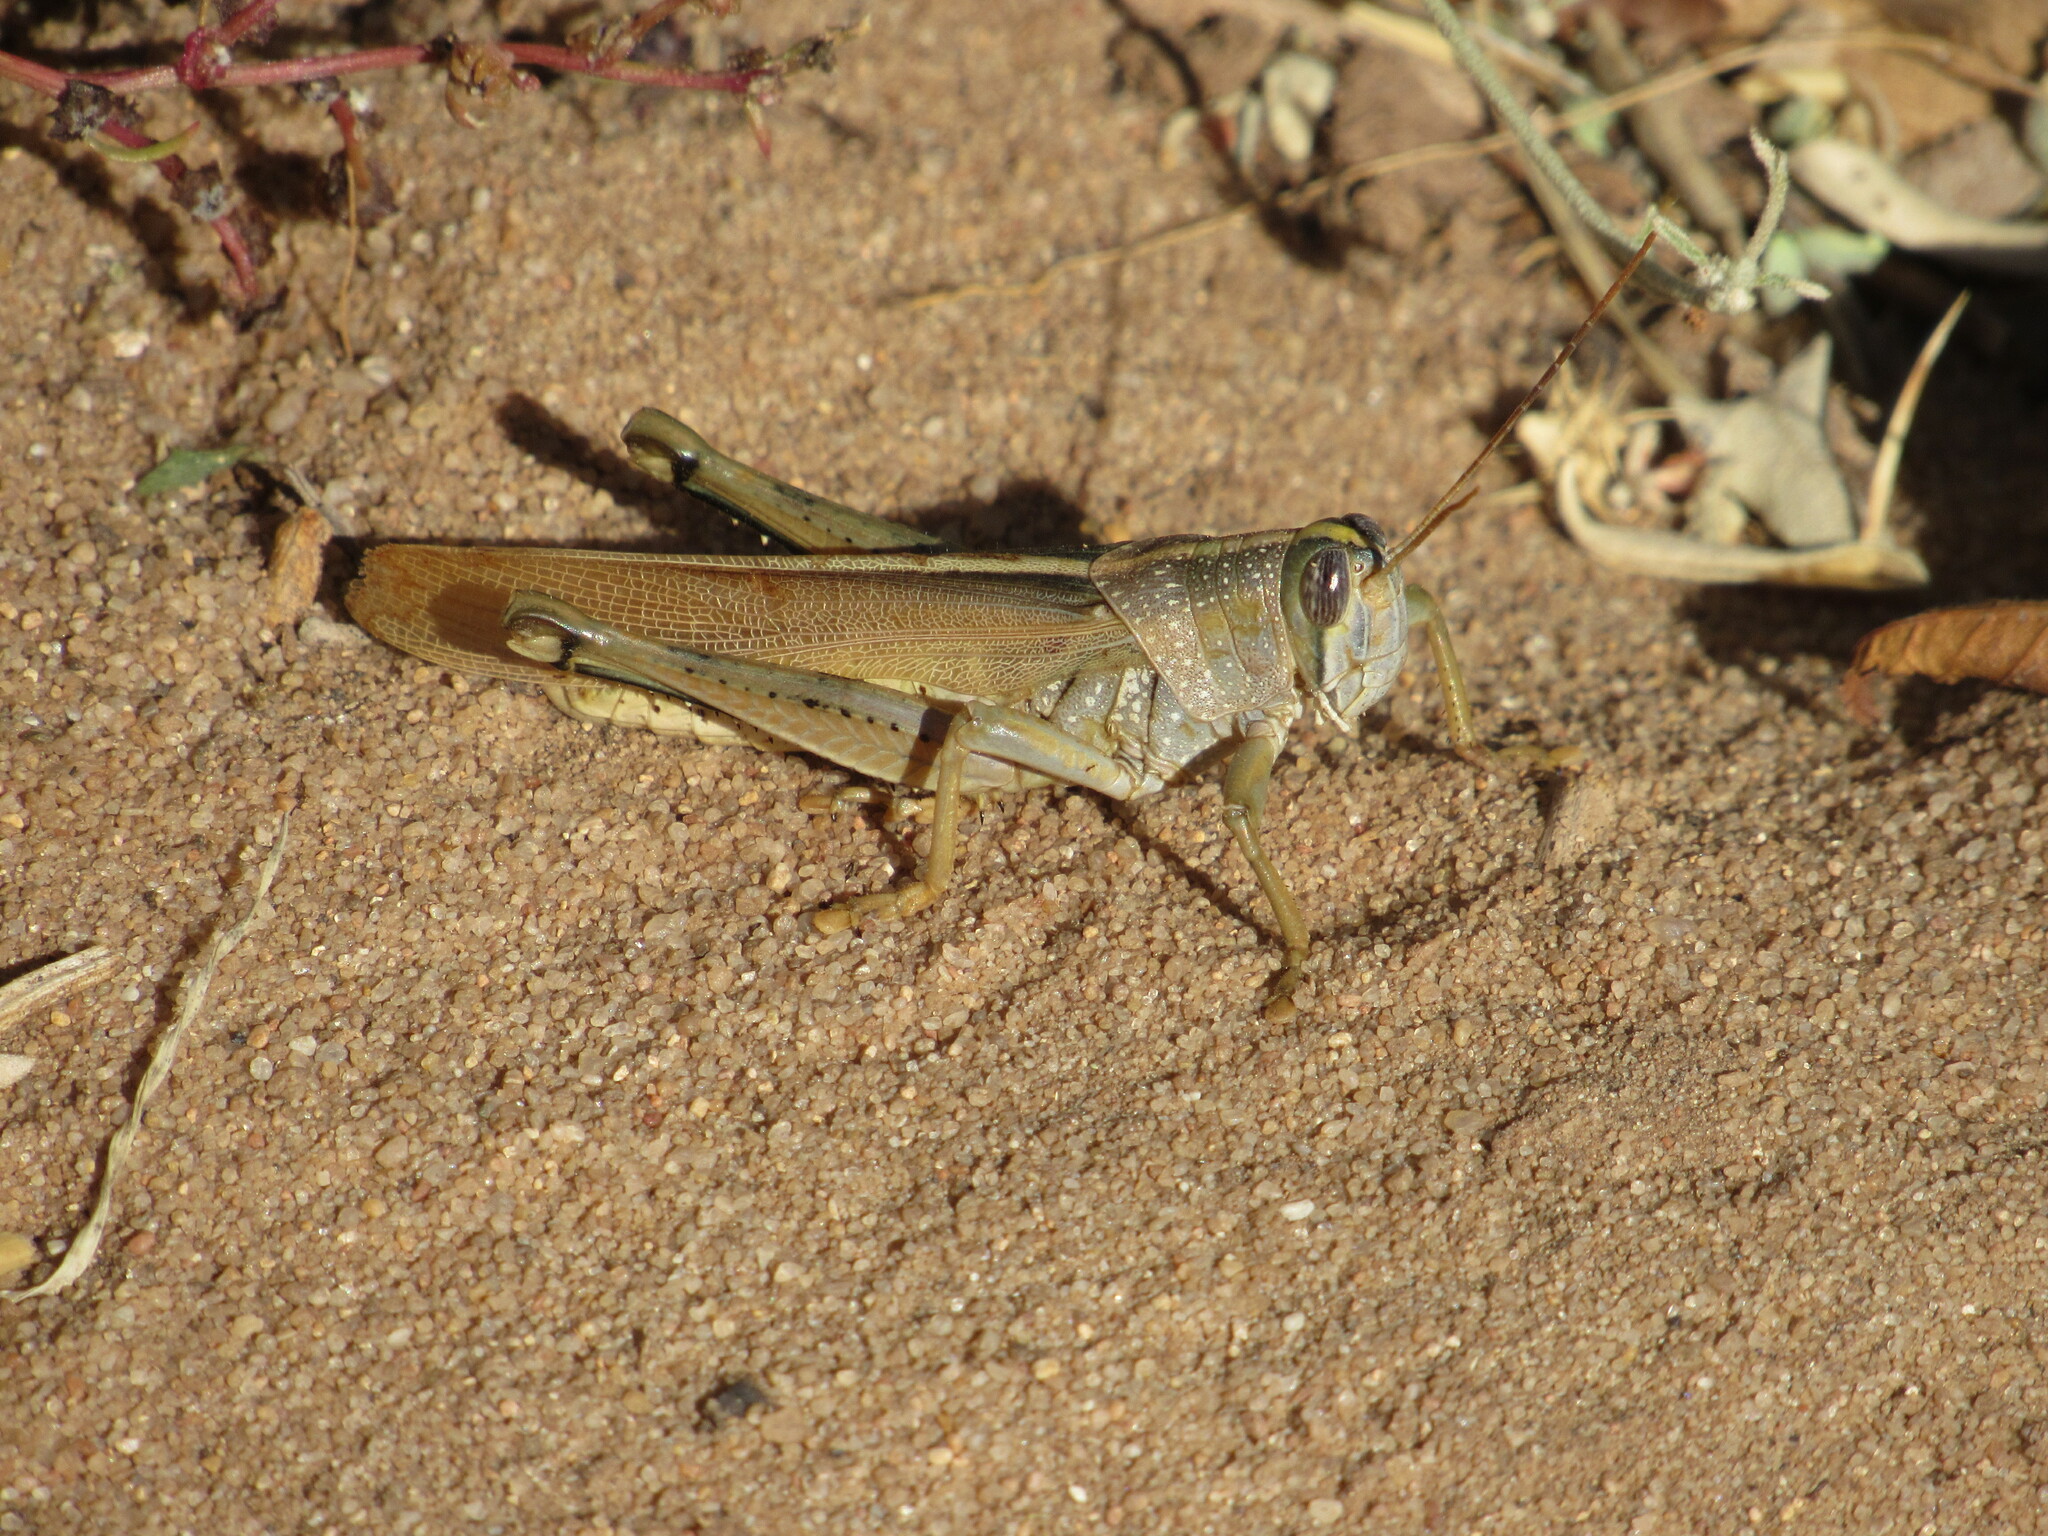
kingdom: Animalia
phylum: Arthropoda
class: Insecta
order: Orthoptera
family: Acrididae
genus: Schistocerca
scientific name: Schistocerca lineata
